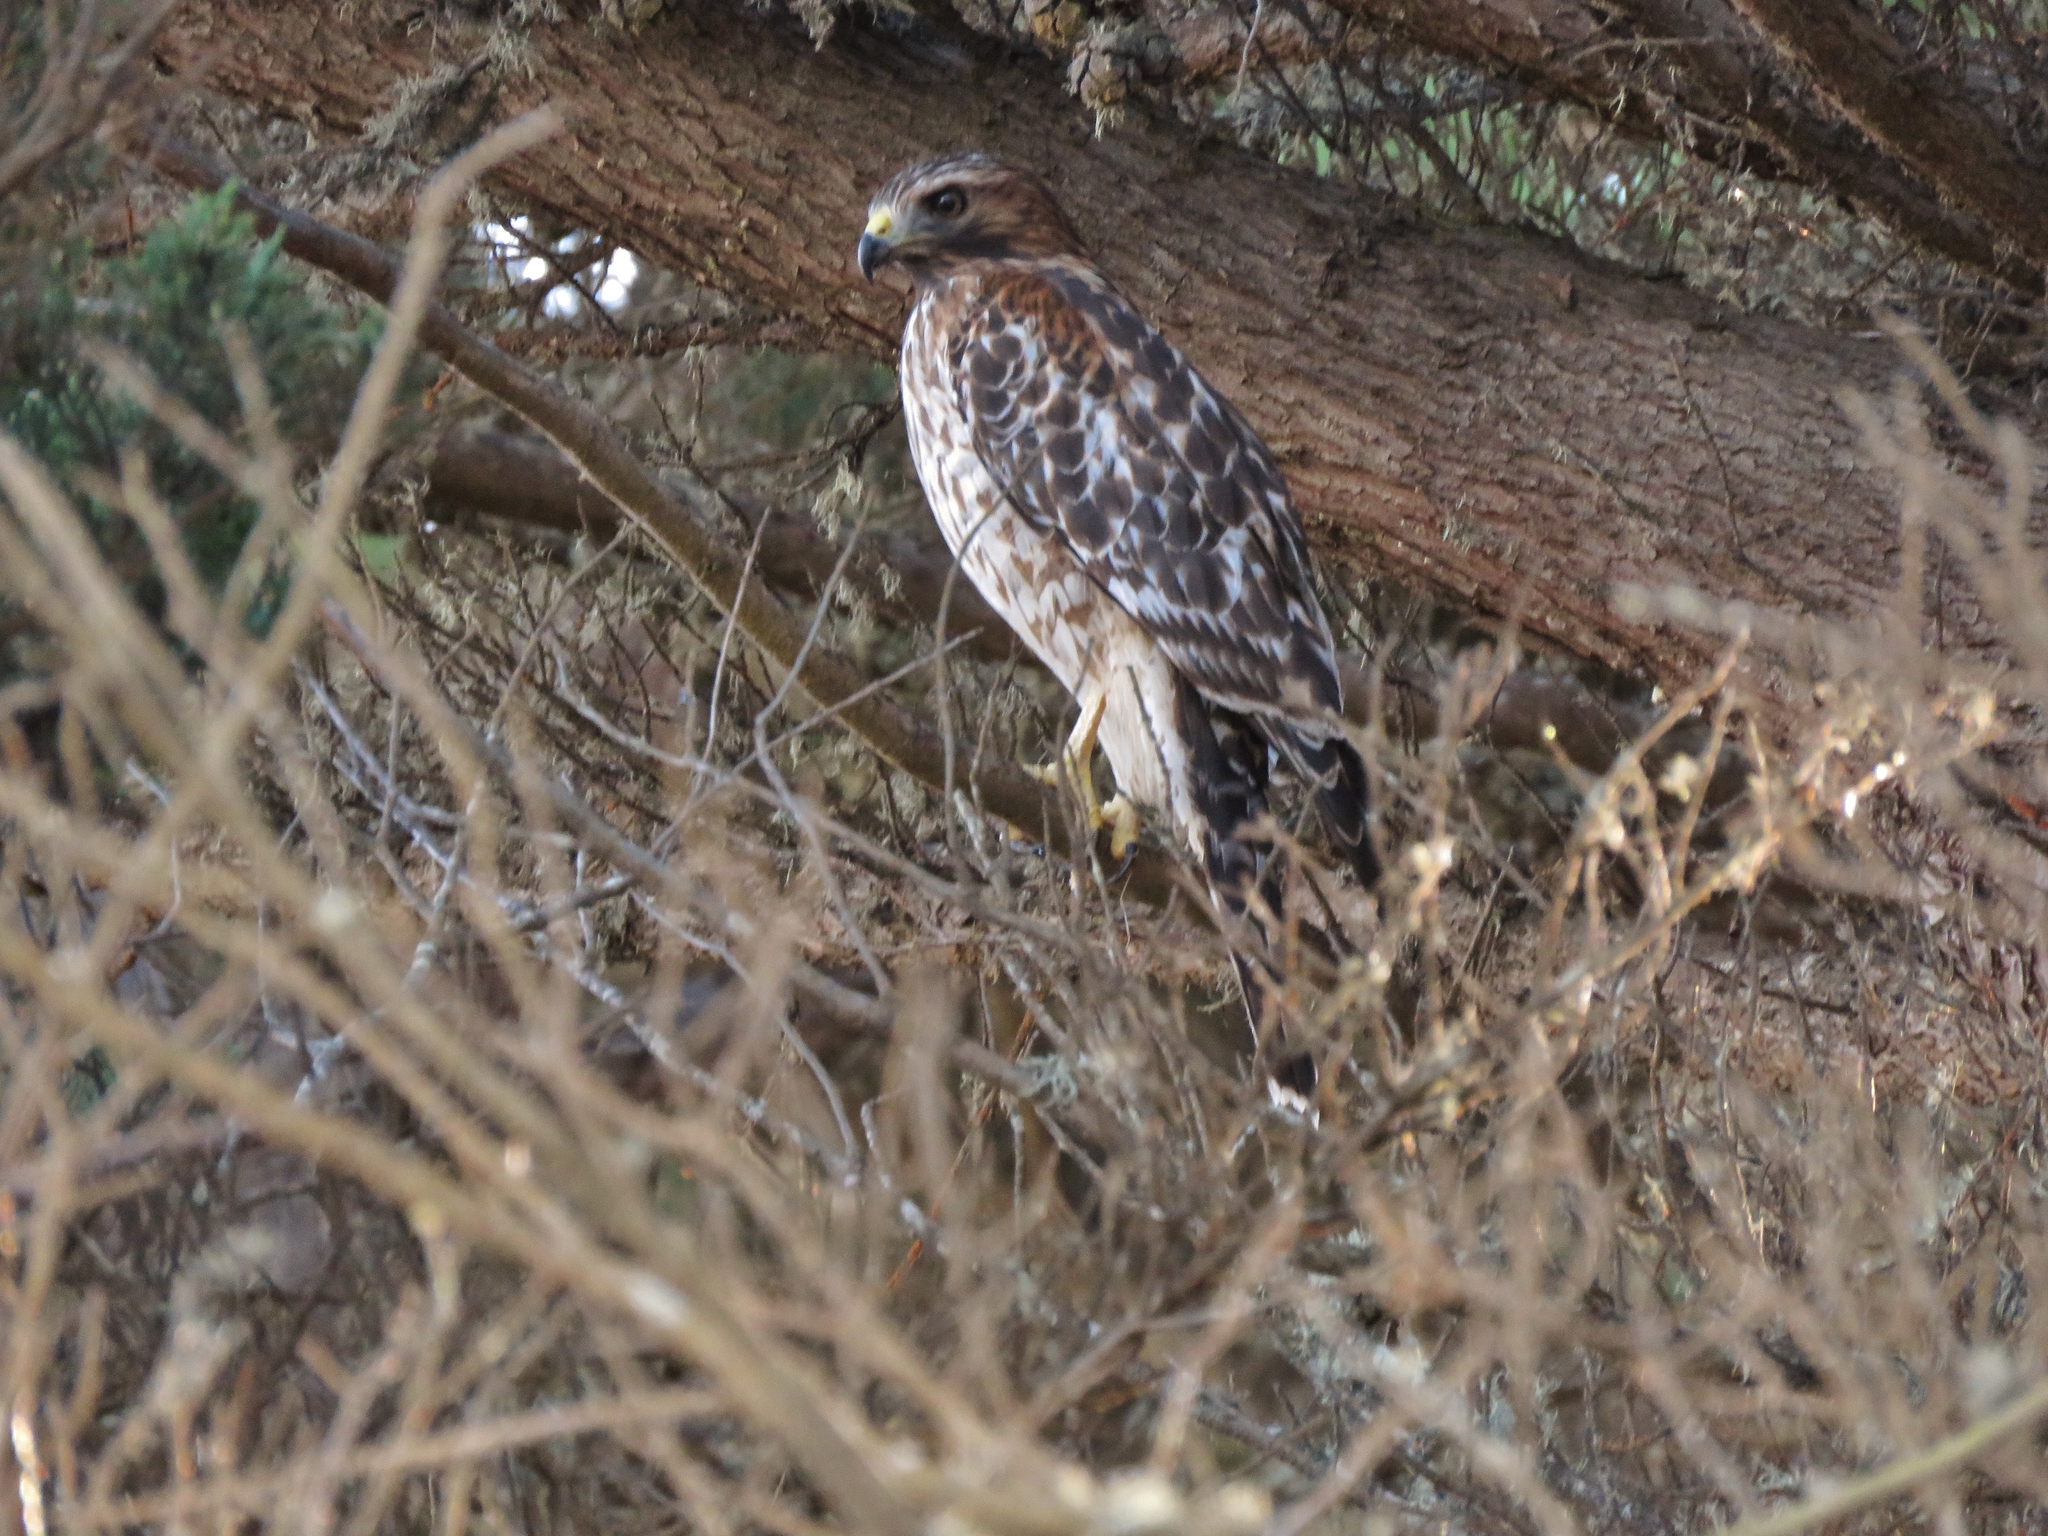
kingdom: Animalia
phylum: Chordata
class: Aves
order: Accipitriformes
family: Accipitridae
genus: Buteo
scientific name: Buteo lineatus
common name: Red-shouldered hawk
